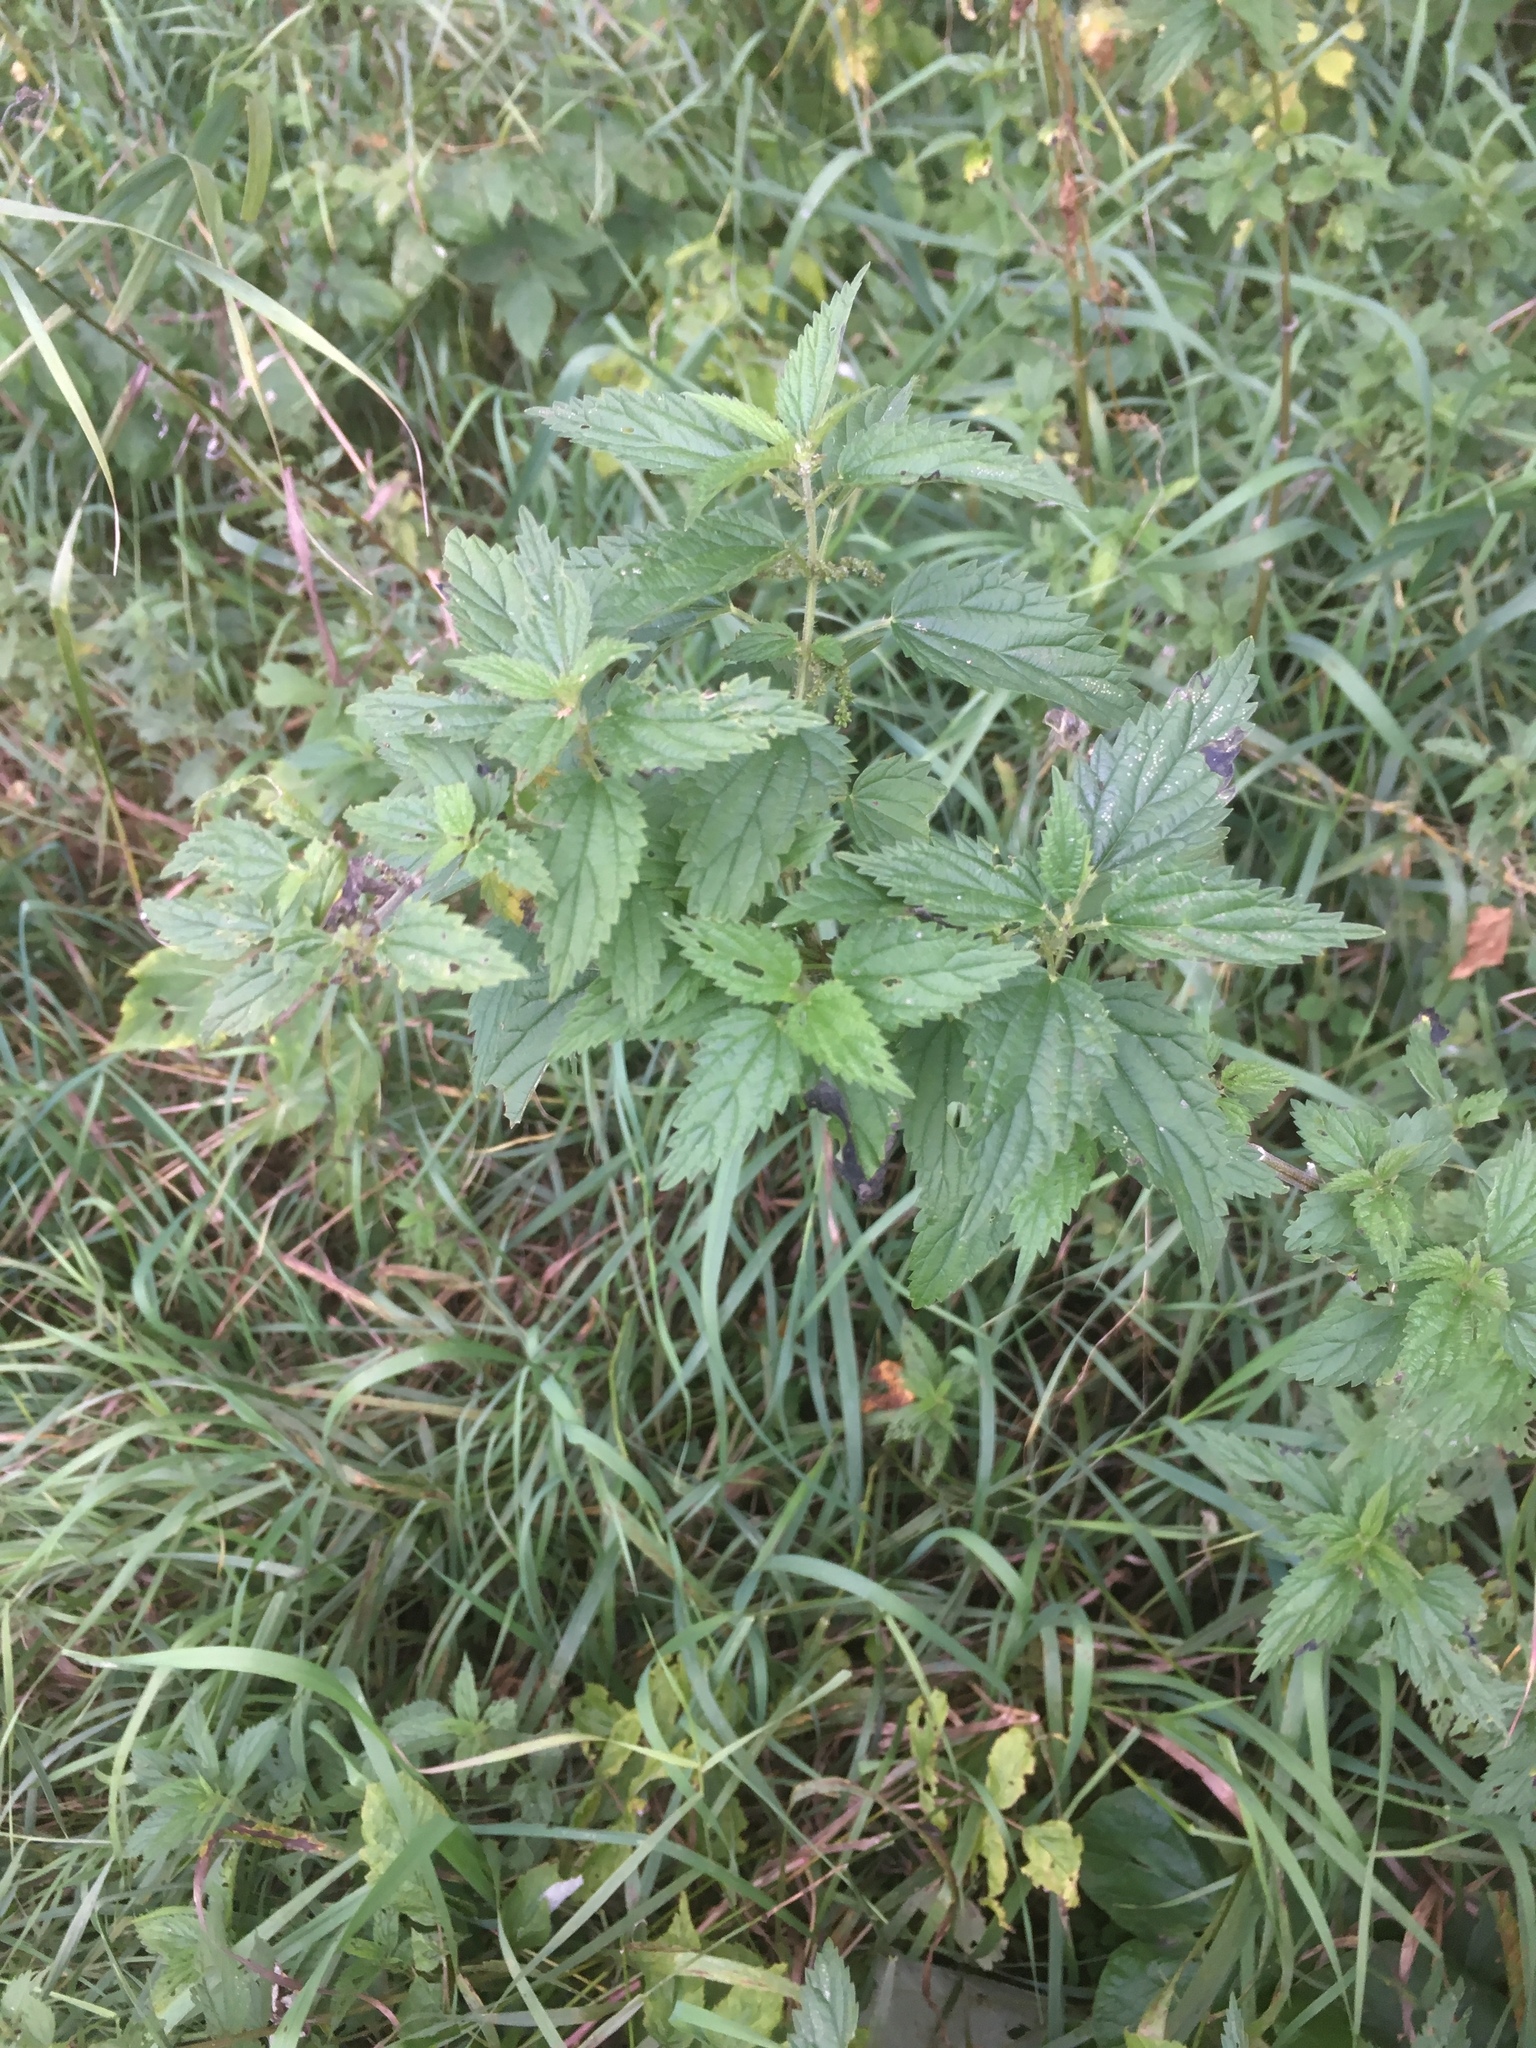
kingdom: Plantae
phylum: Tracheophyta
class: Magnoliopsida
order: Rosales
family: Urticaceae
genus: Urtica
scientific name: Urtica dioica
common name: Common nettle
